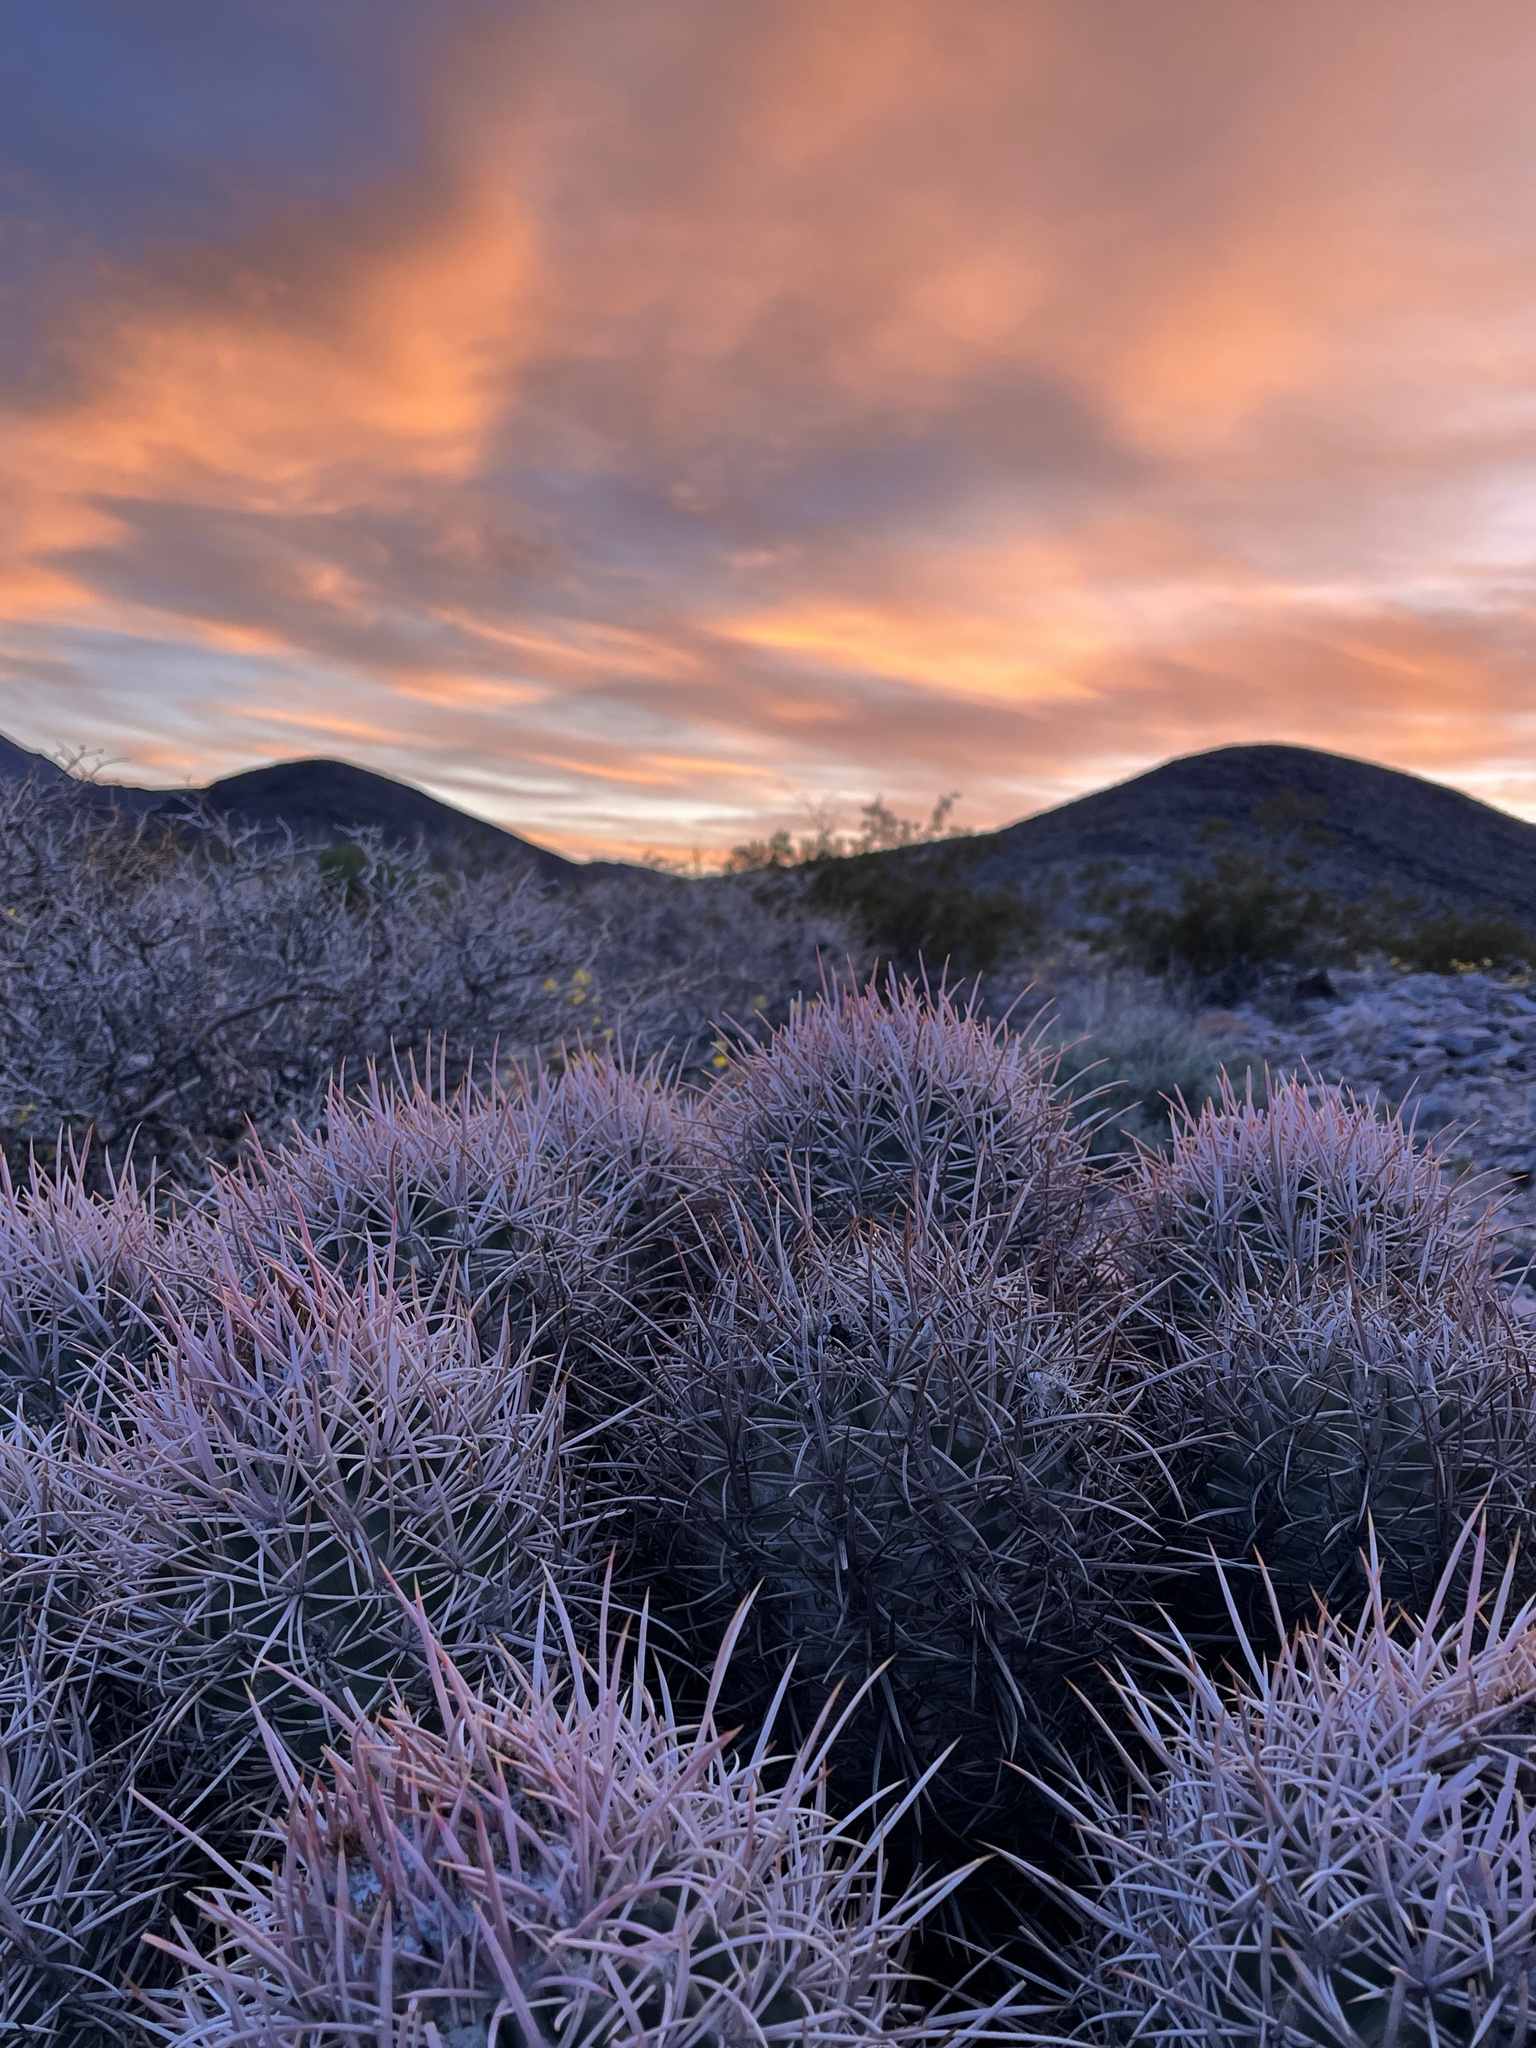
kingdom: Plantae
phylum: Tracheophyta
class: Magnoliopsida
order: Caryophyllales
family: Cactaceae
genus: Echinocactus
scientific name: Echinocactus polycephalus
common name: Cottontop cactus
